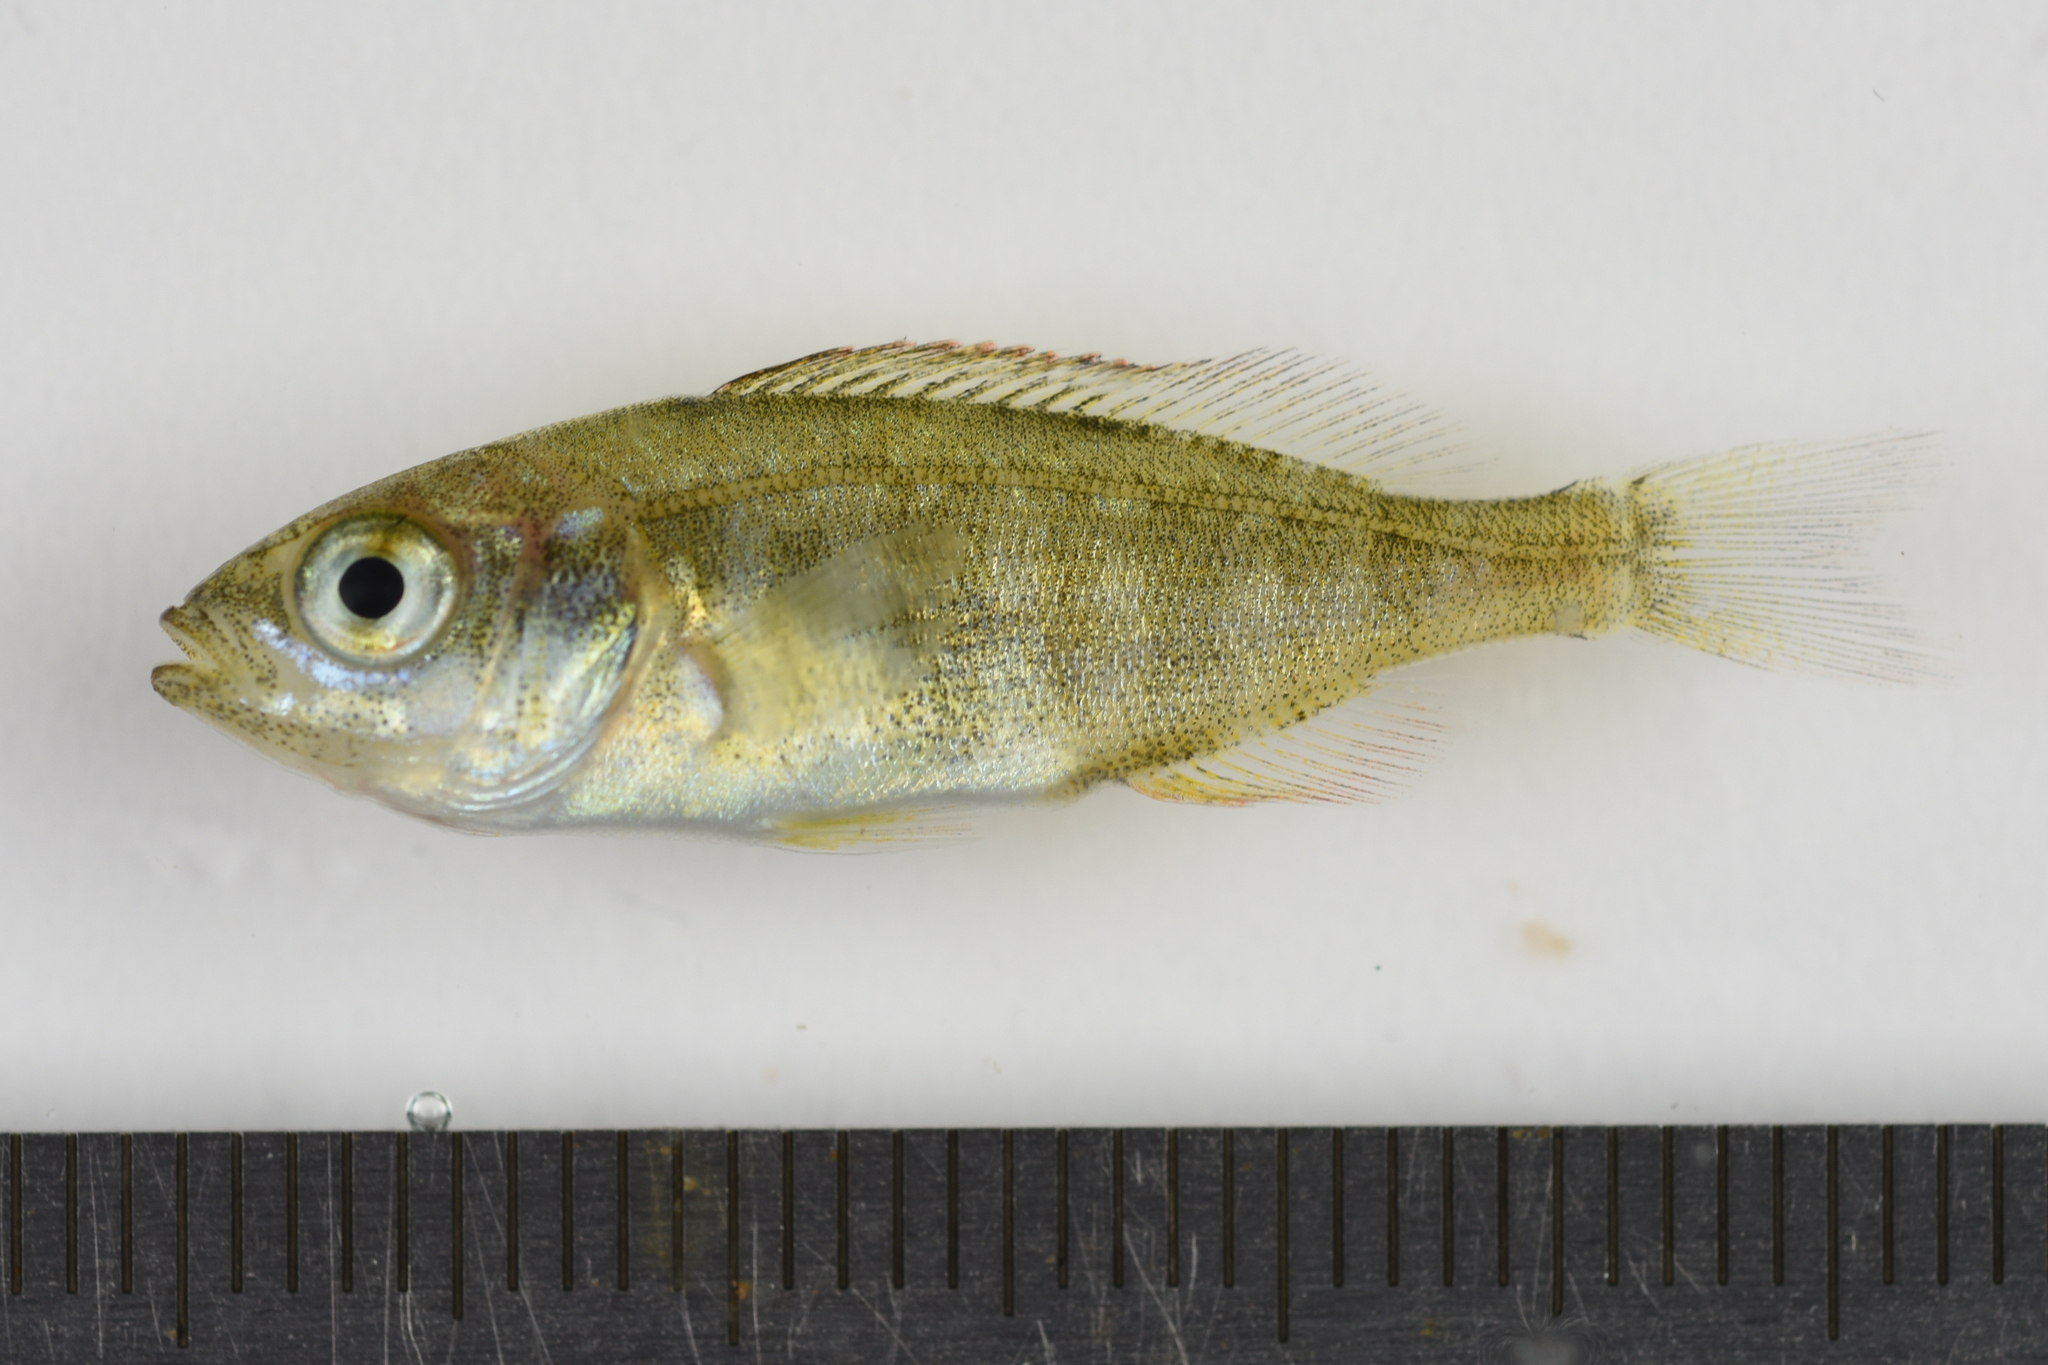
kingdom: Animalia
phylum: Chordata
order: Perciformes
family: Sparidae
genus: Spondyliosoma
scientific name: Spondyliosoma cantharus
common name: Black seabream
